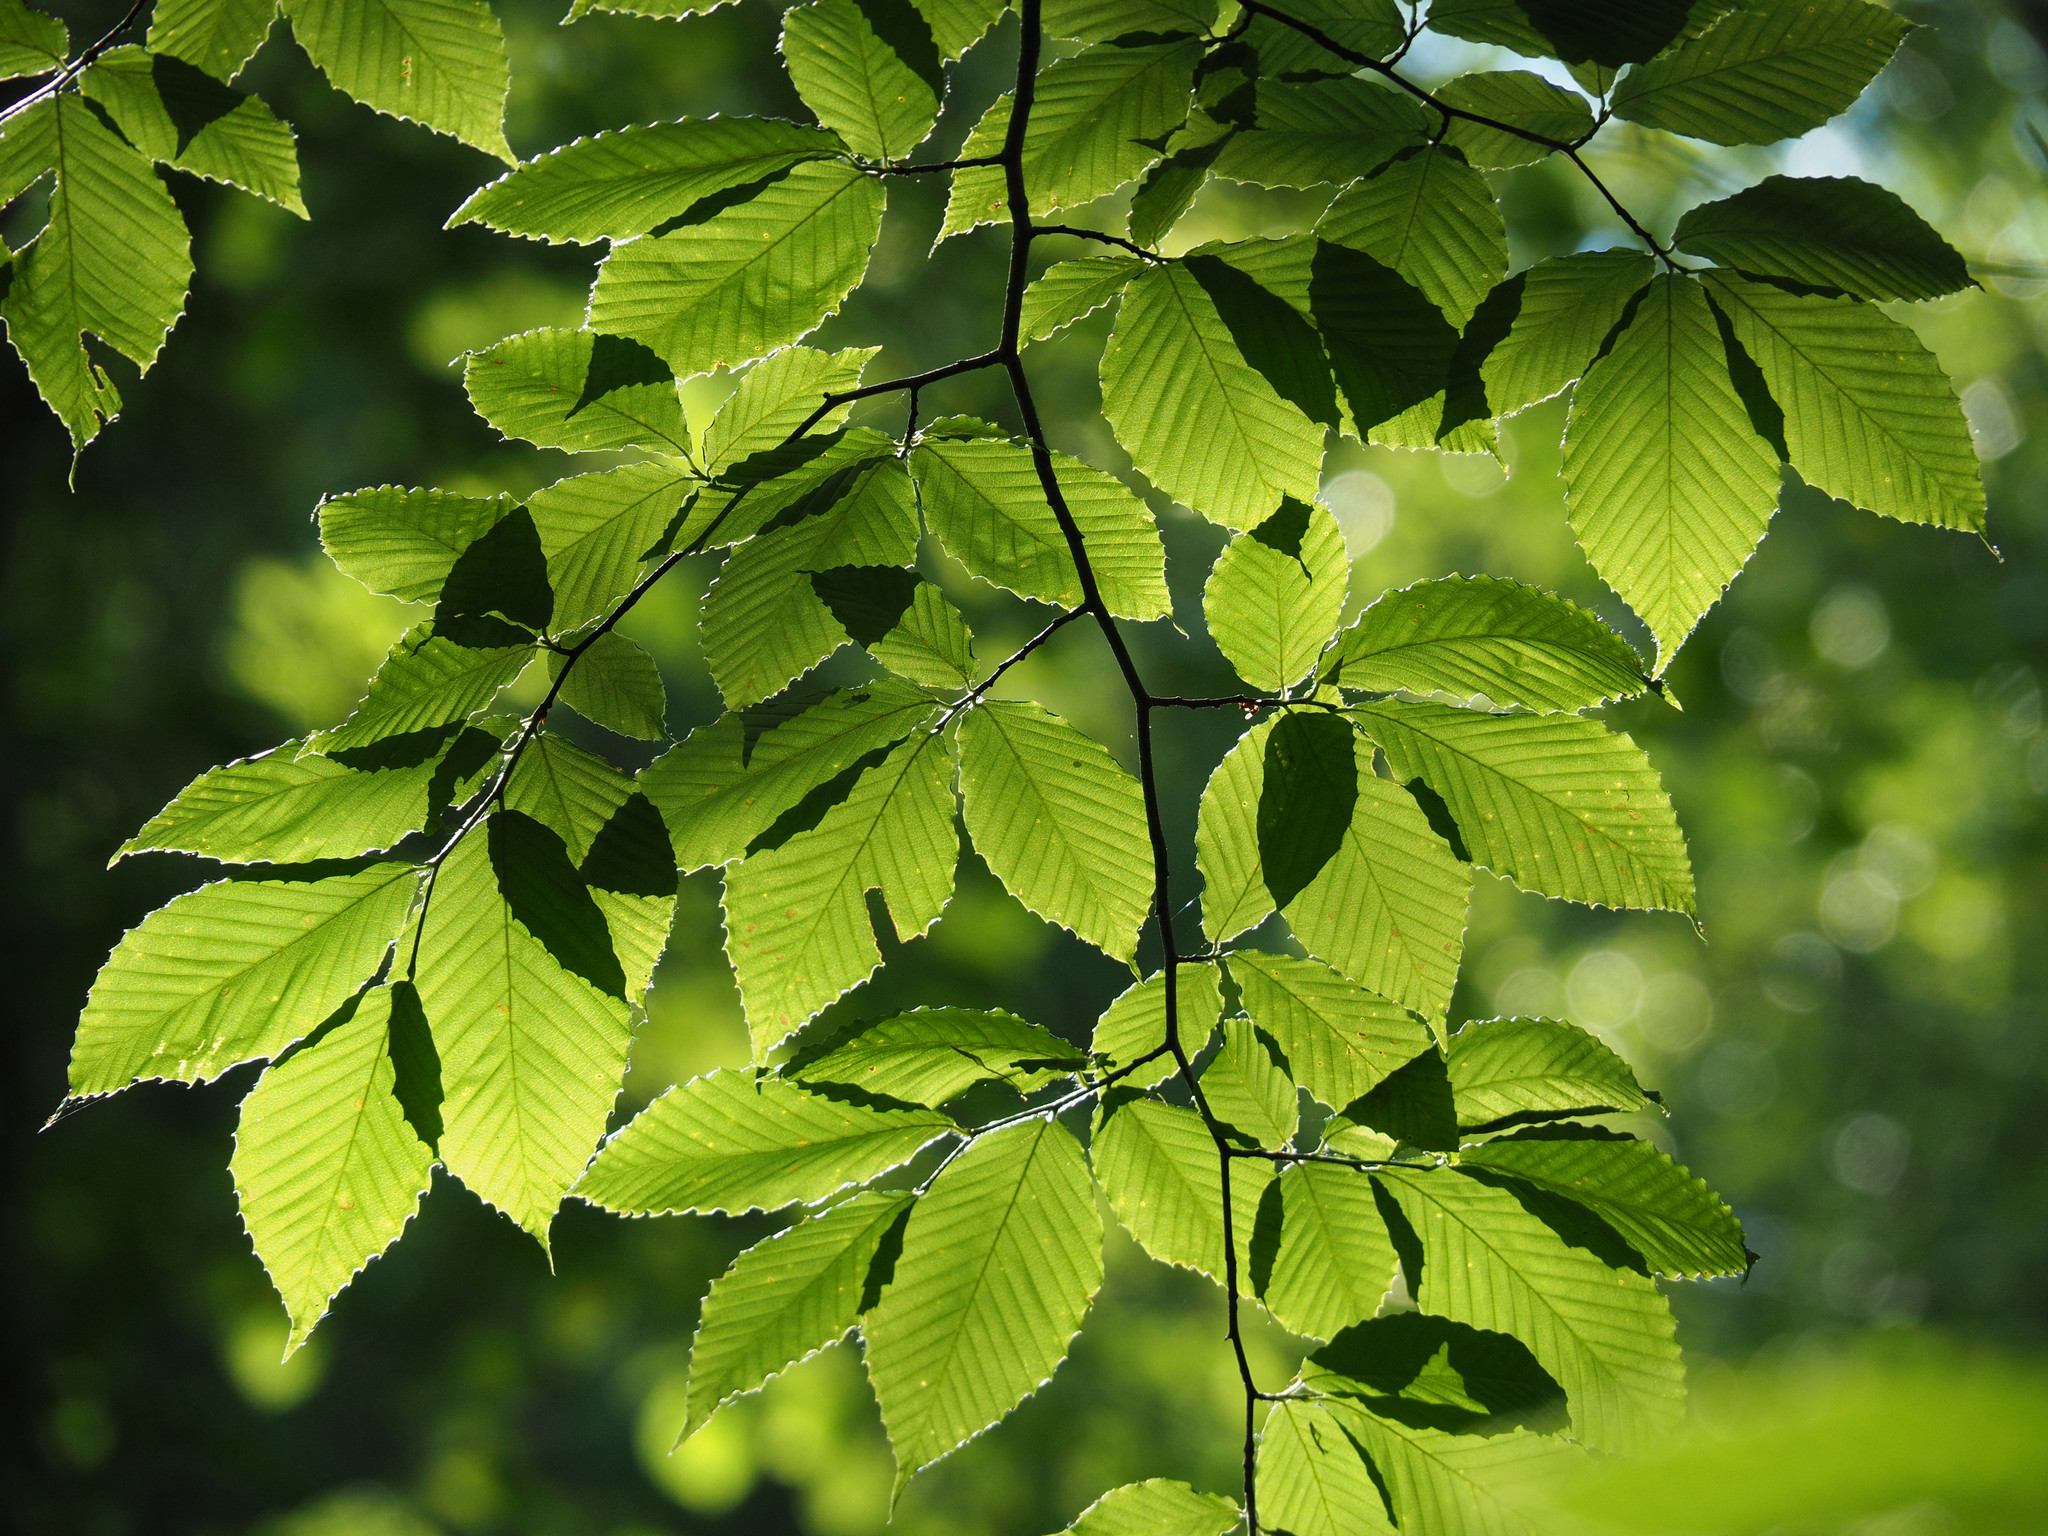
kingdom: Plantae
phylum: Tracheophyta
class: Magnoliopsida
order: Fagales
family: Fagaceae
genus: Fagus
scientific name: Fagus grandifolia
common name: American beech
